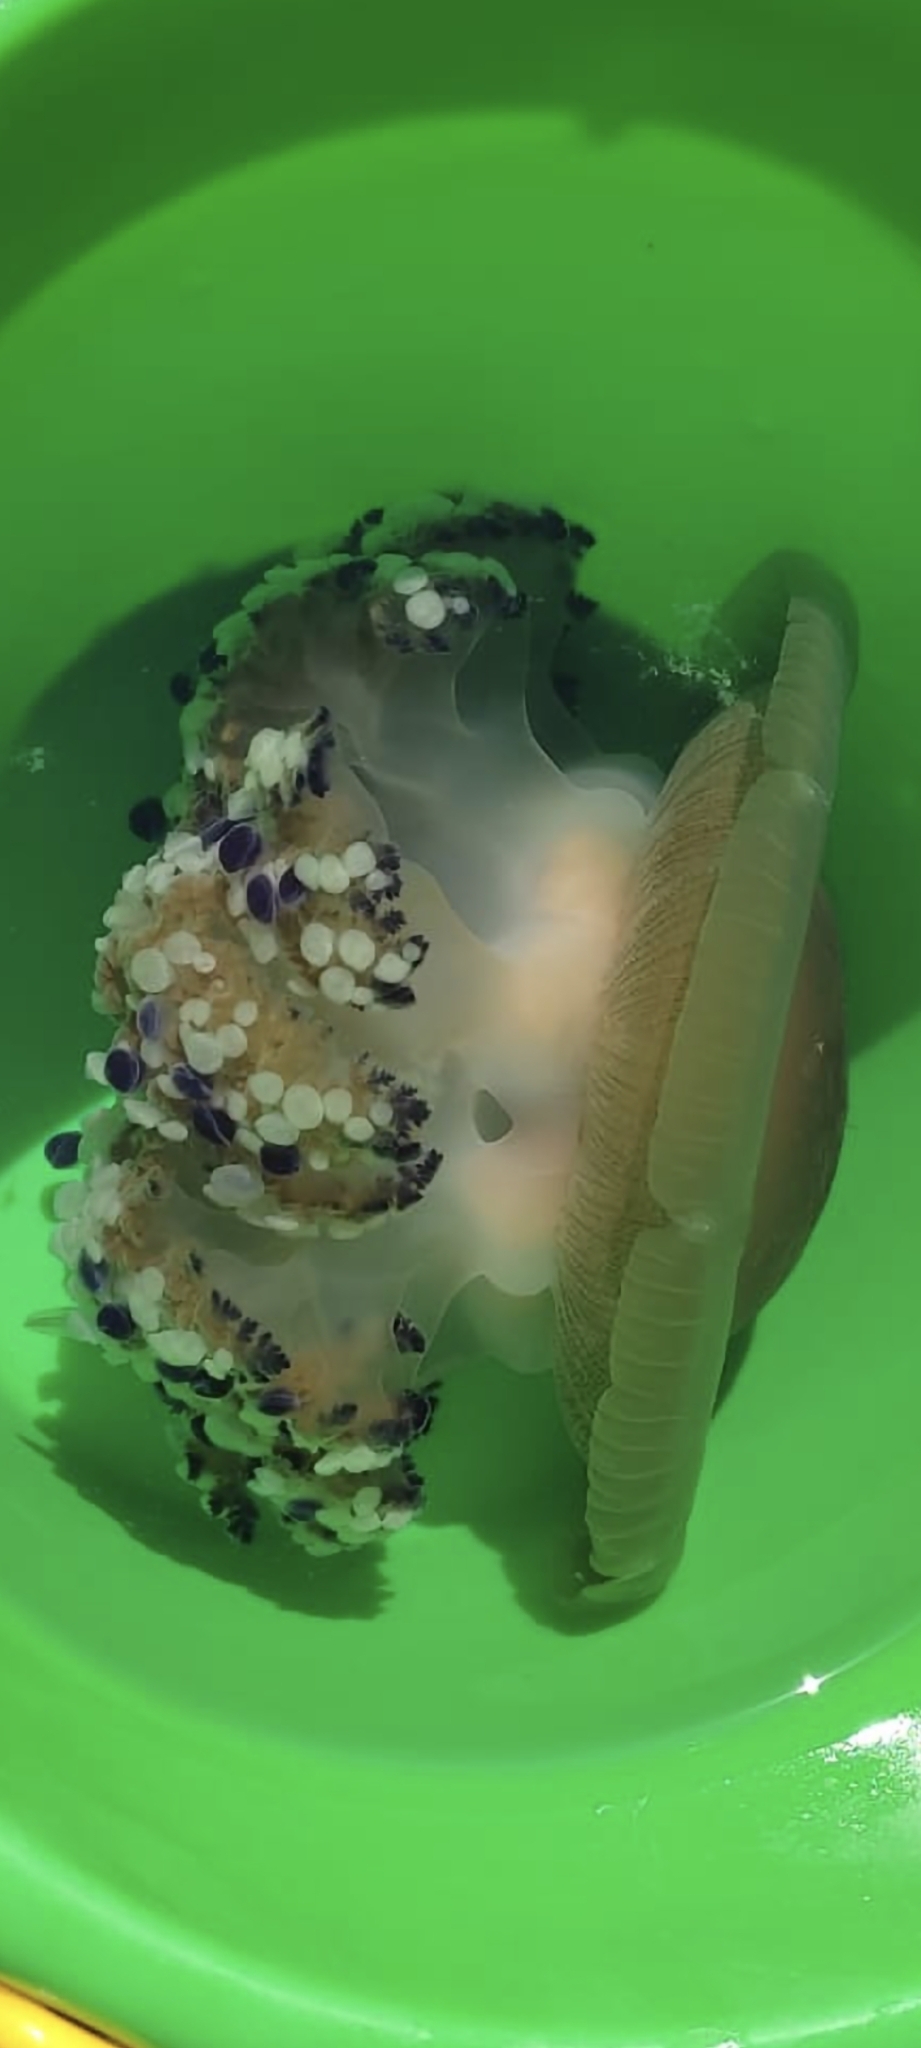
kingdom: Animalia
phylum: Cnidaria
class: Scyphozoa
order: Rhizostomeae
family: Cepheidae
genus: Cotylorhiza
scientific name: Cotylorhiza tuberculata
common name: Mediterranean jelly
